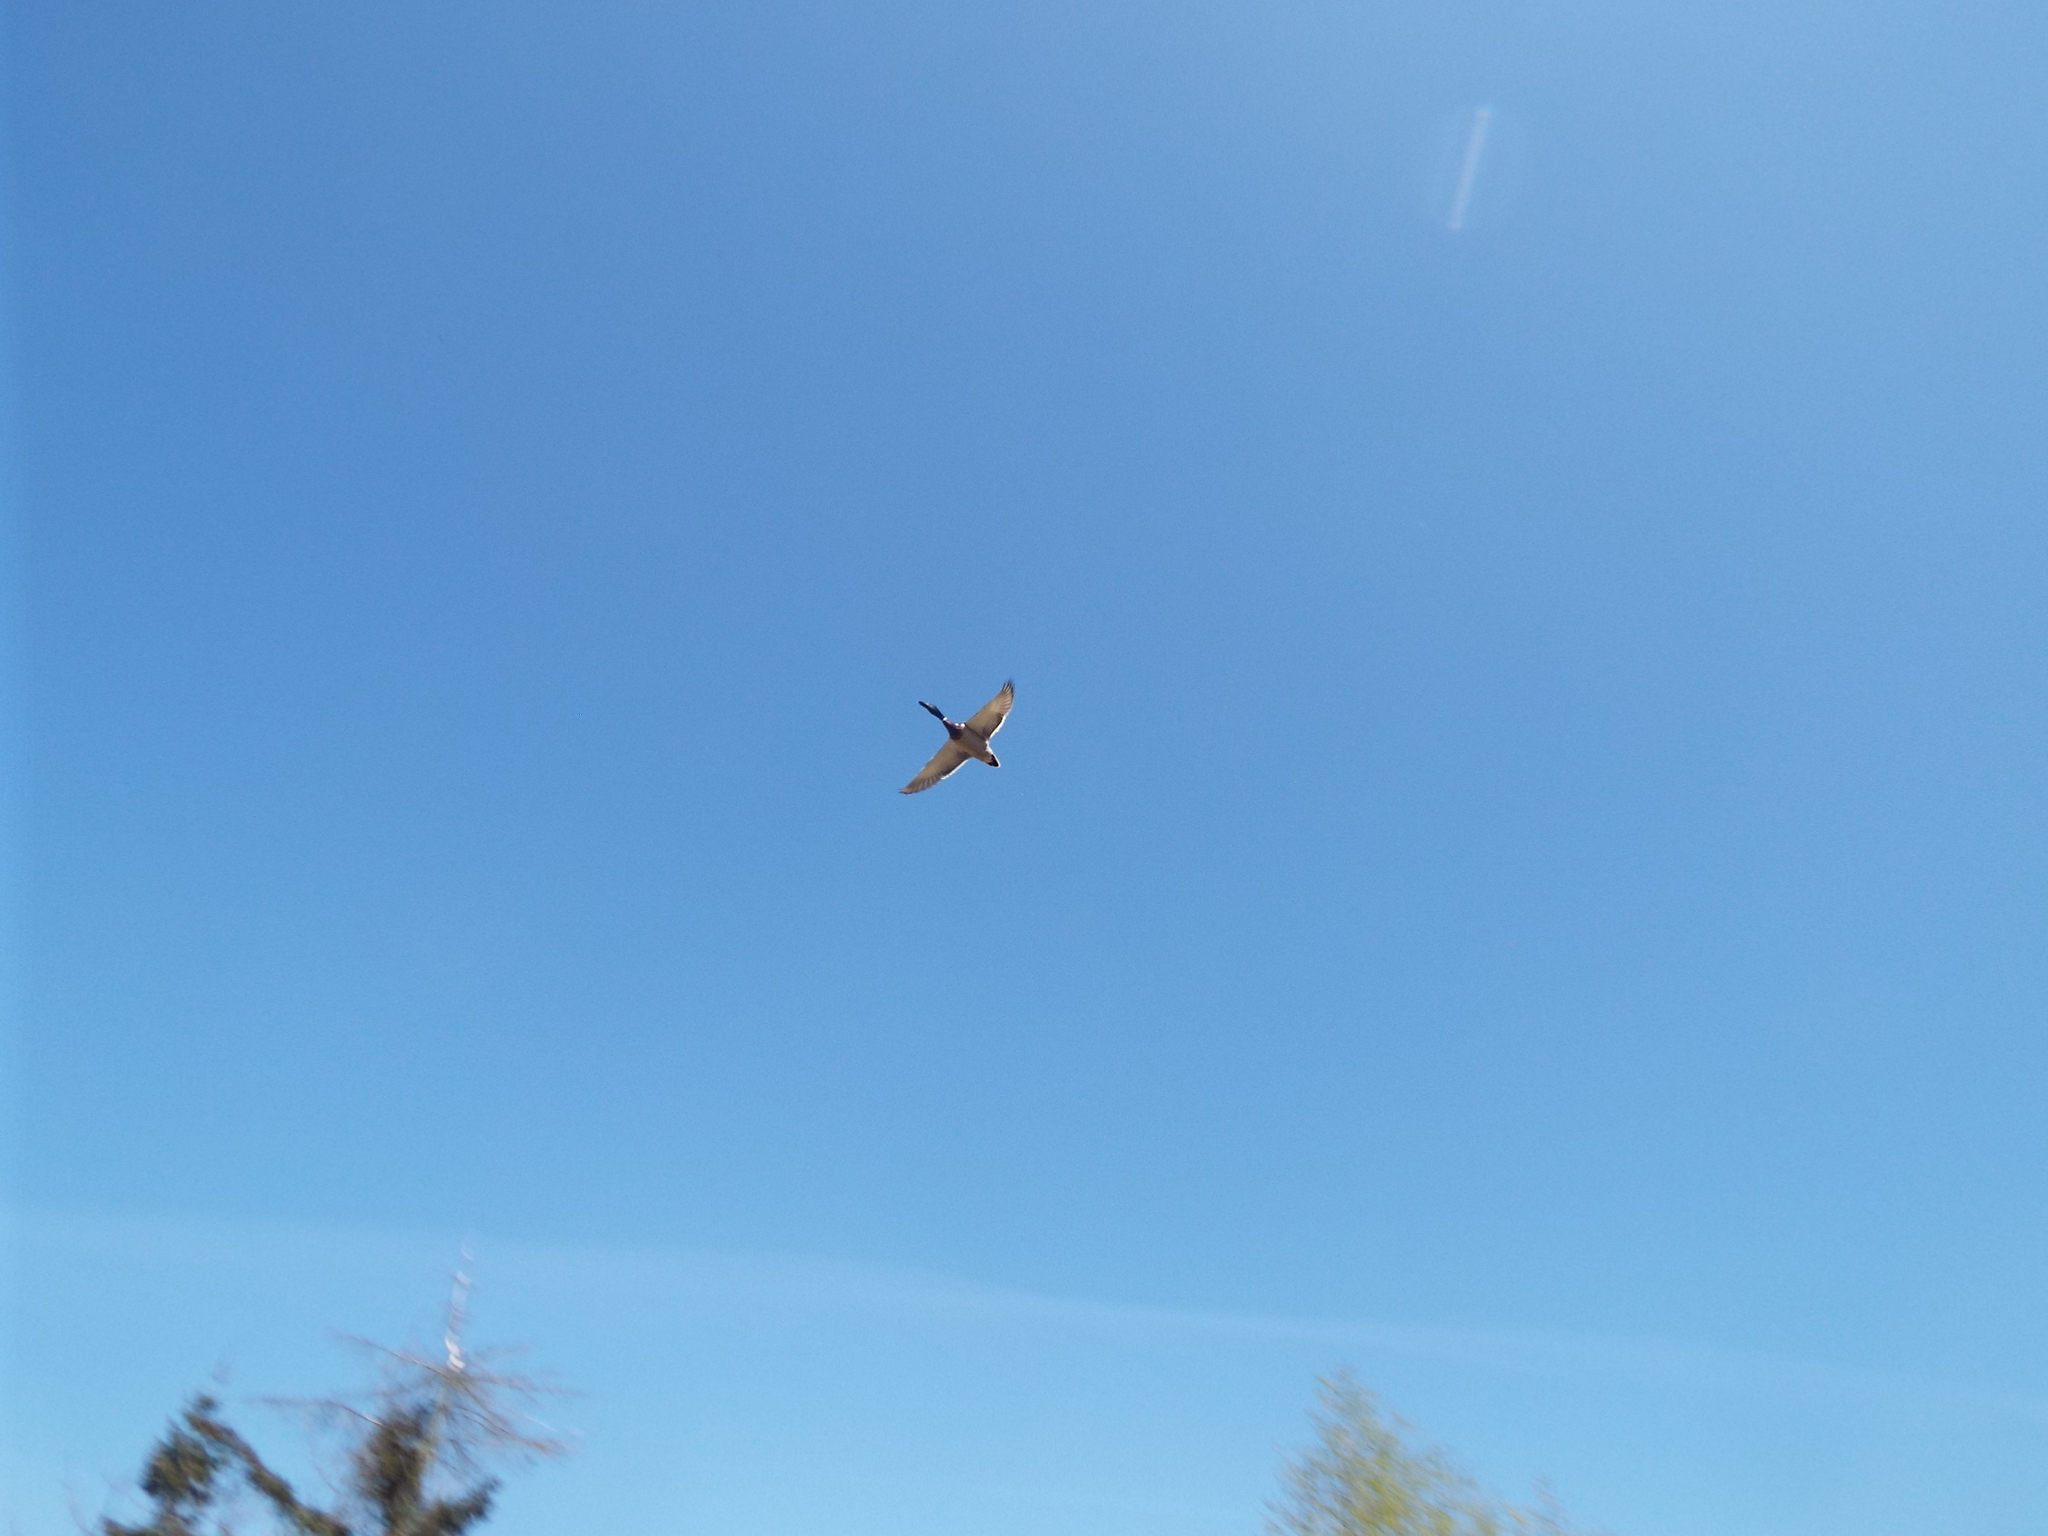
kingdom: Animalia
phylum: Chordata
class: Aves
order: Anseriformes
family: Anatidae
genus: Anas
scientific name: Anas platyrhynchos
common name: Mallard
